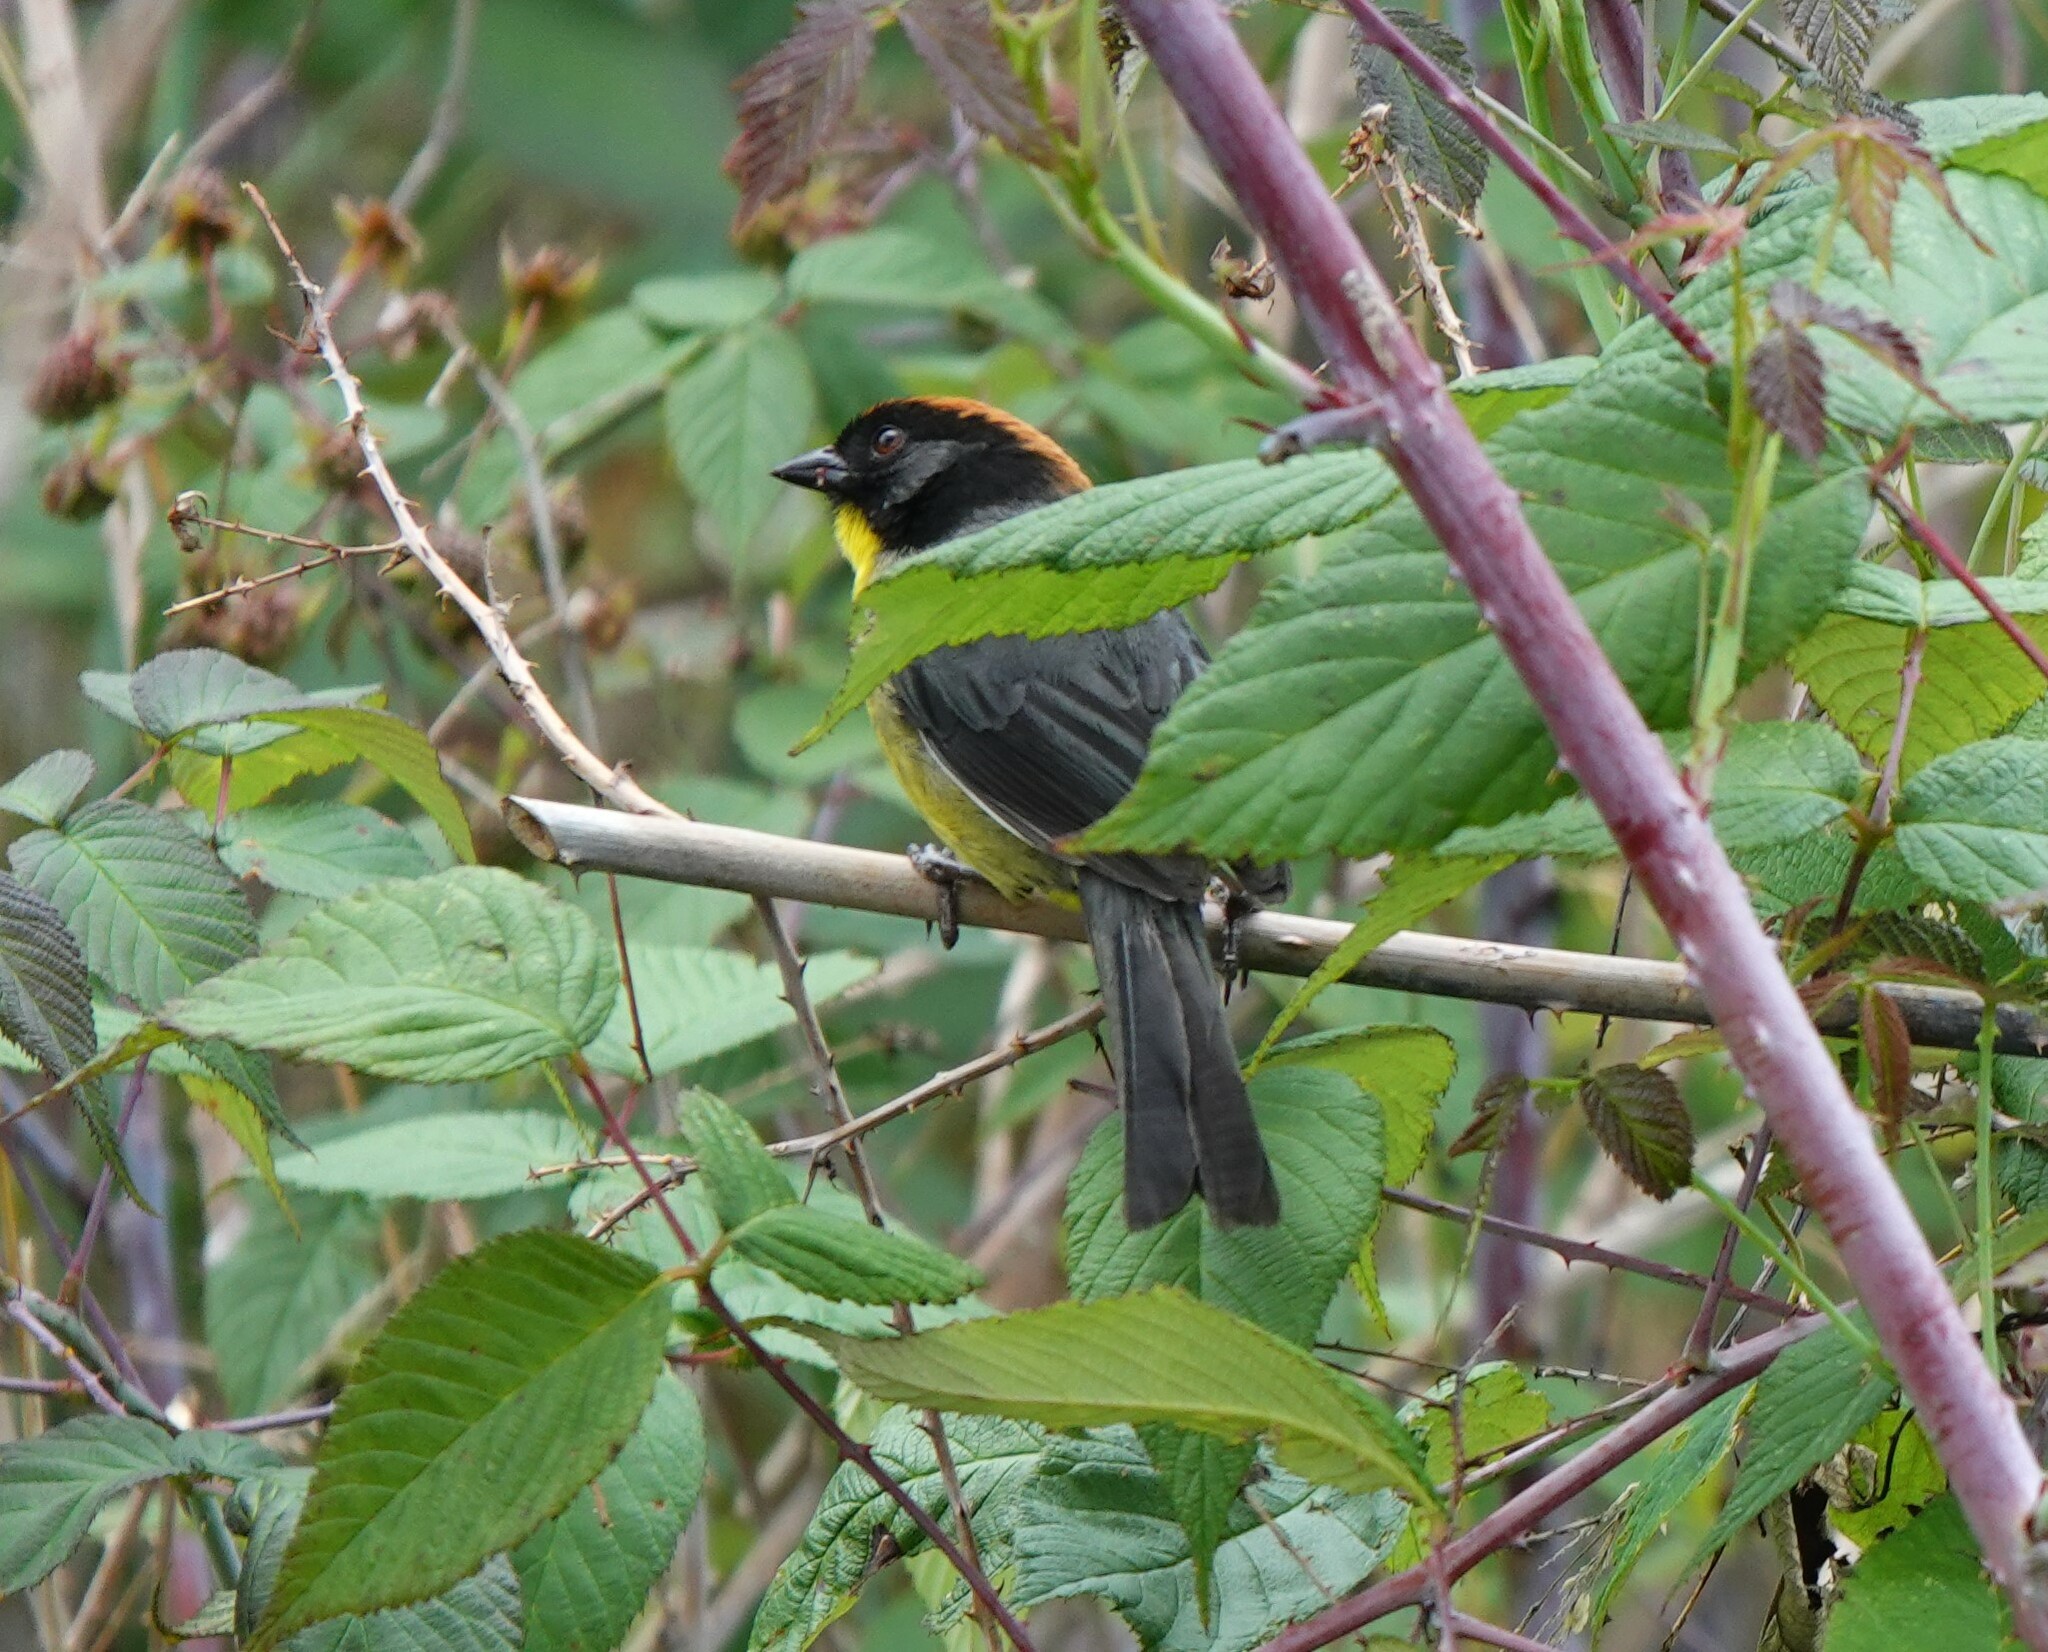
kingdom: Animalia
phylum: Chordata
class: Aves
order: Passeriformes
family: Passerellidae
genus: Atlapetes
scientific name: Atlapetes nigrifrons
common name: Black-fronted brushfinch
